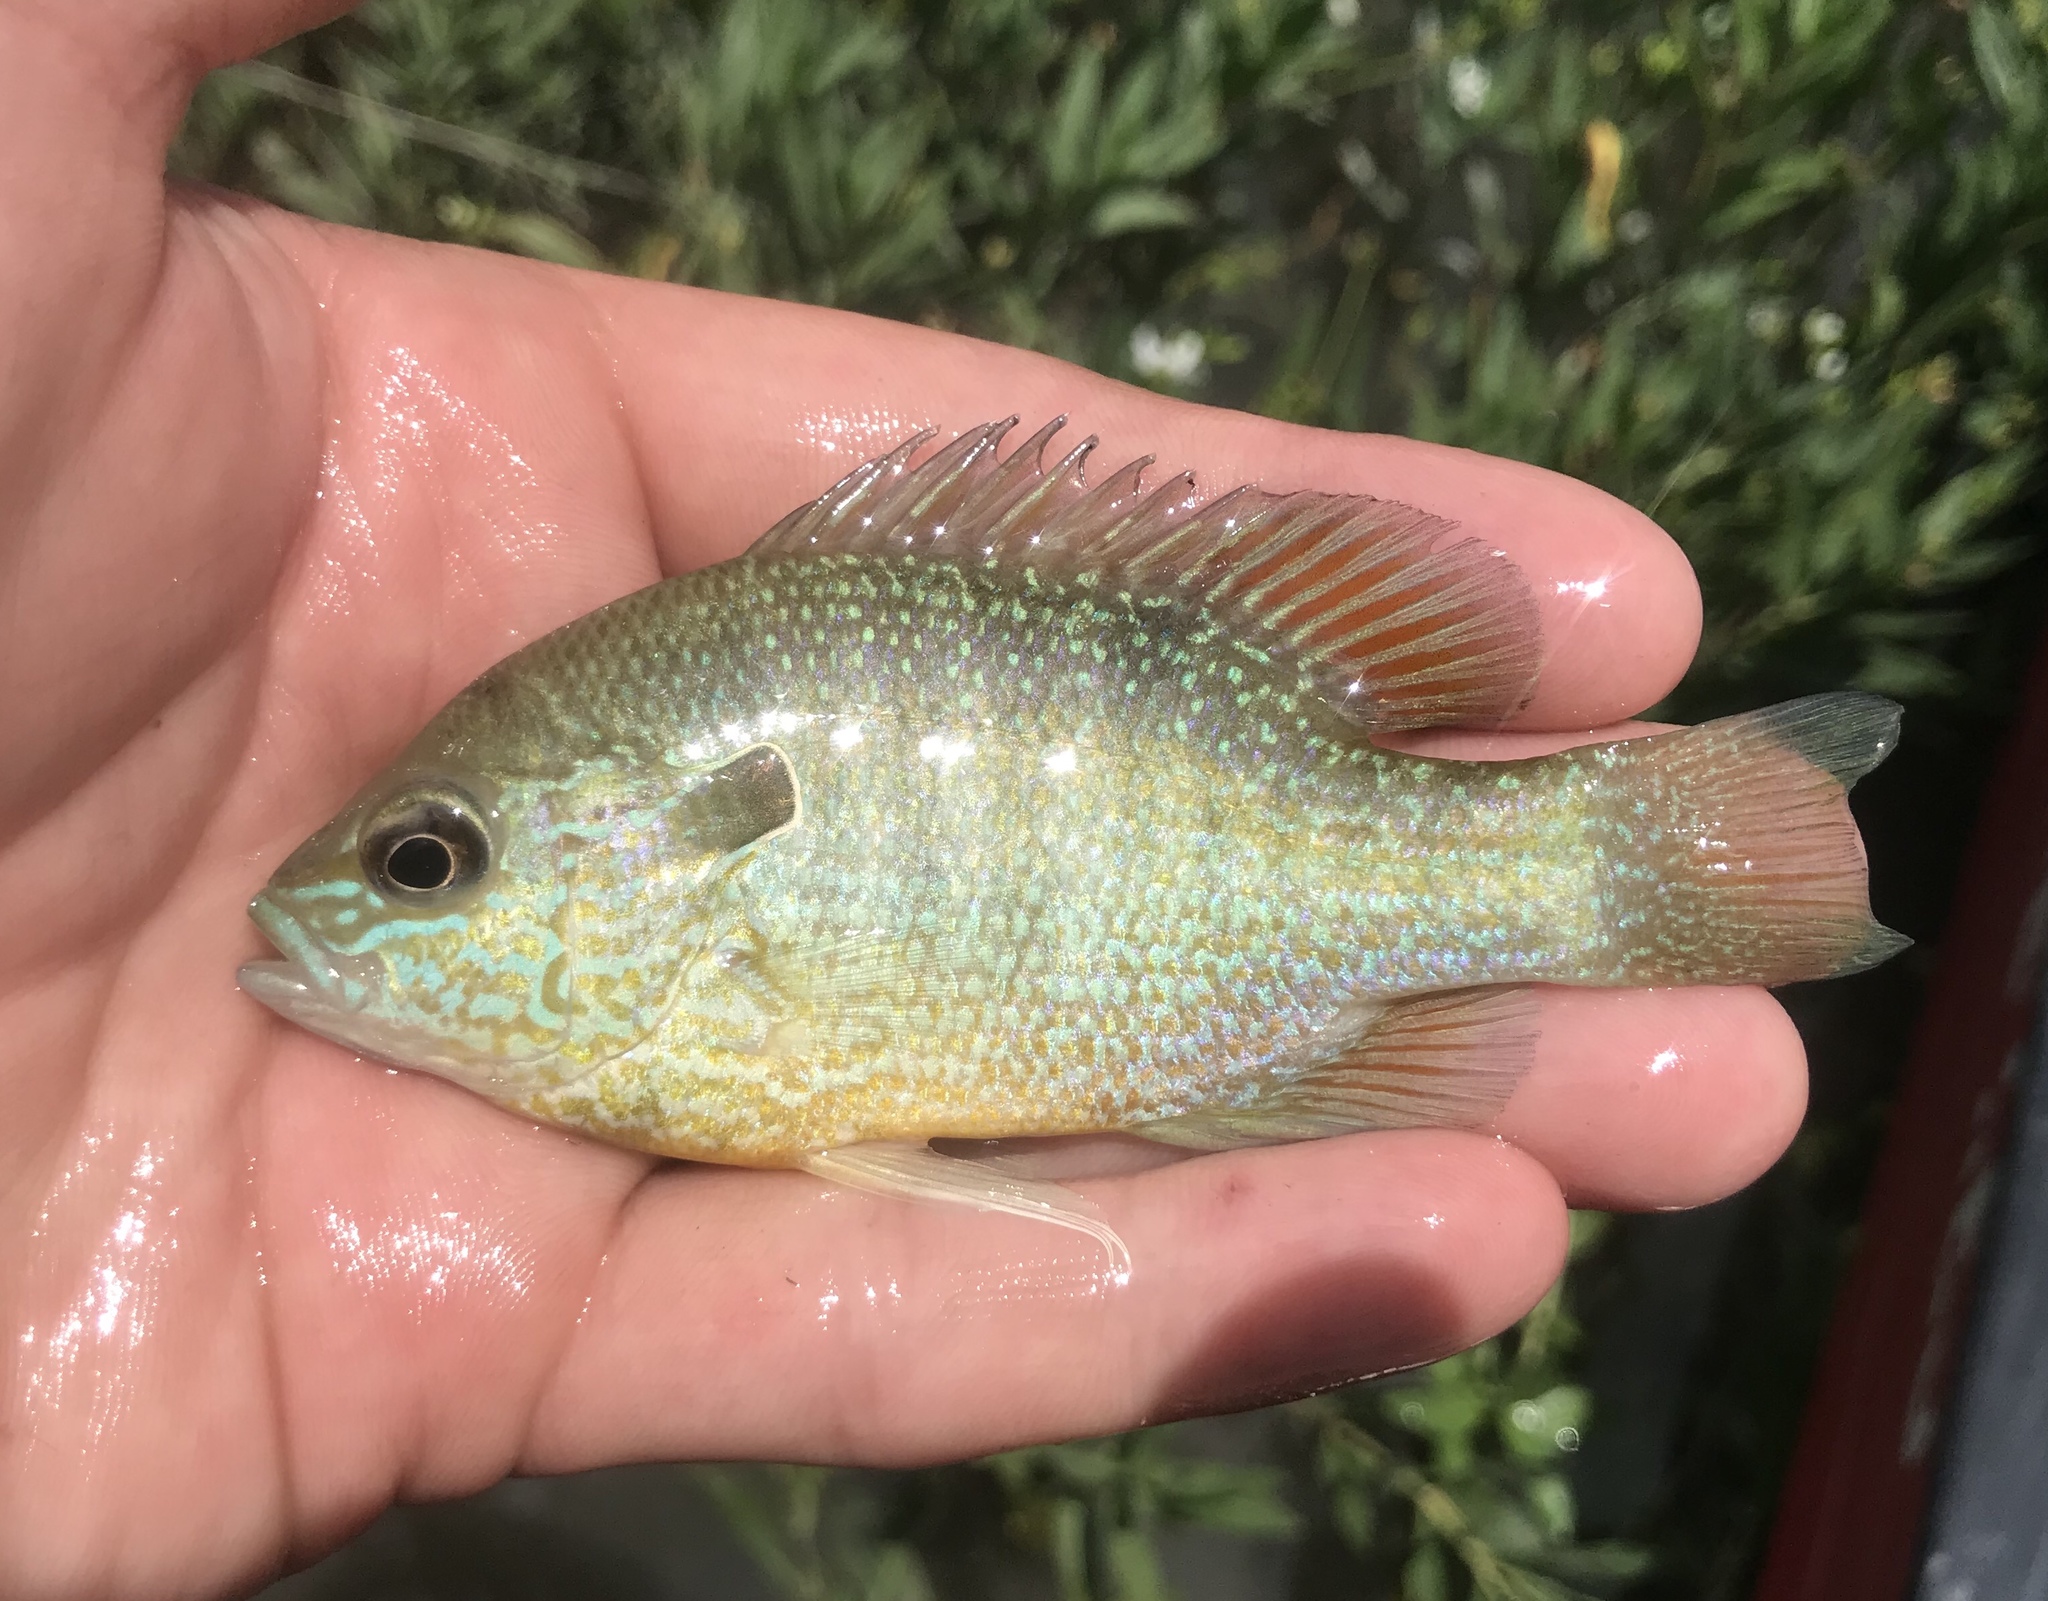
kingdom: Animalia
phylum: Chordata
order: Perciformes
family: Centrarchidae
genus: Lepomis
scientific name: Lepomis megalotis
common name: Longear sunfish
